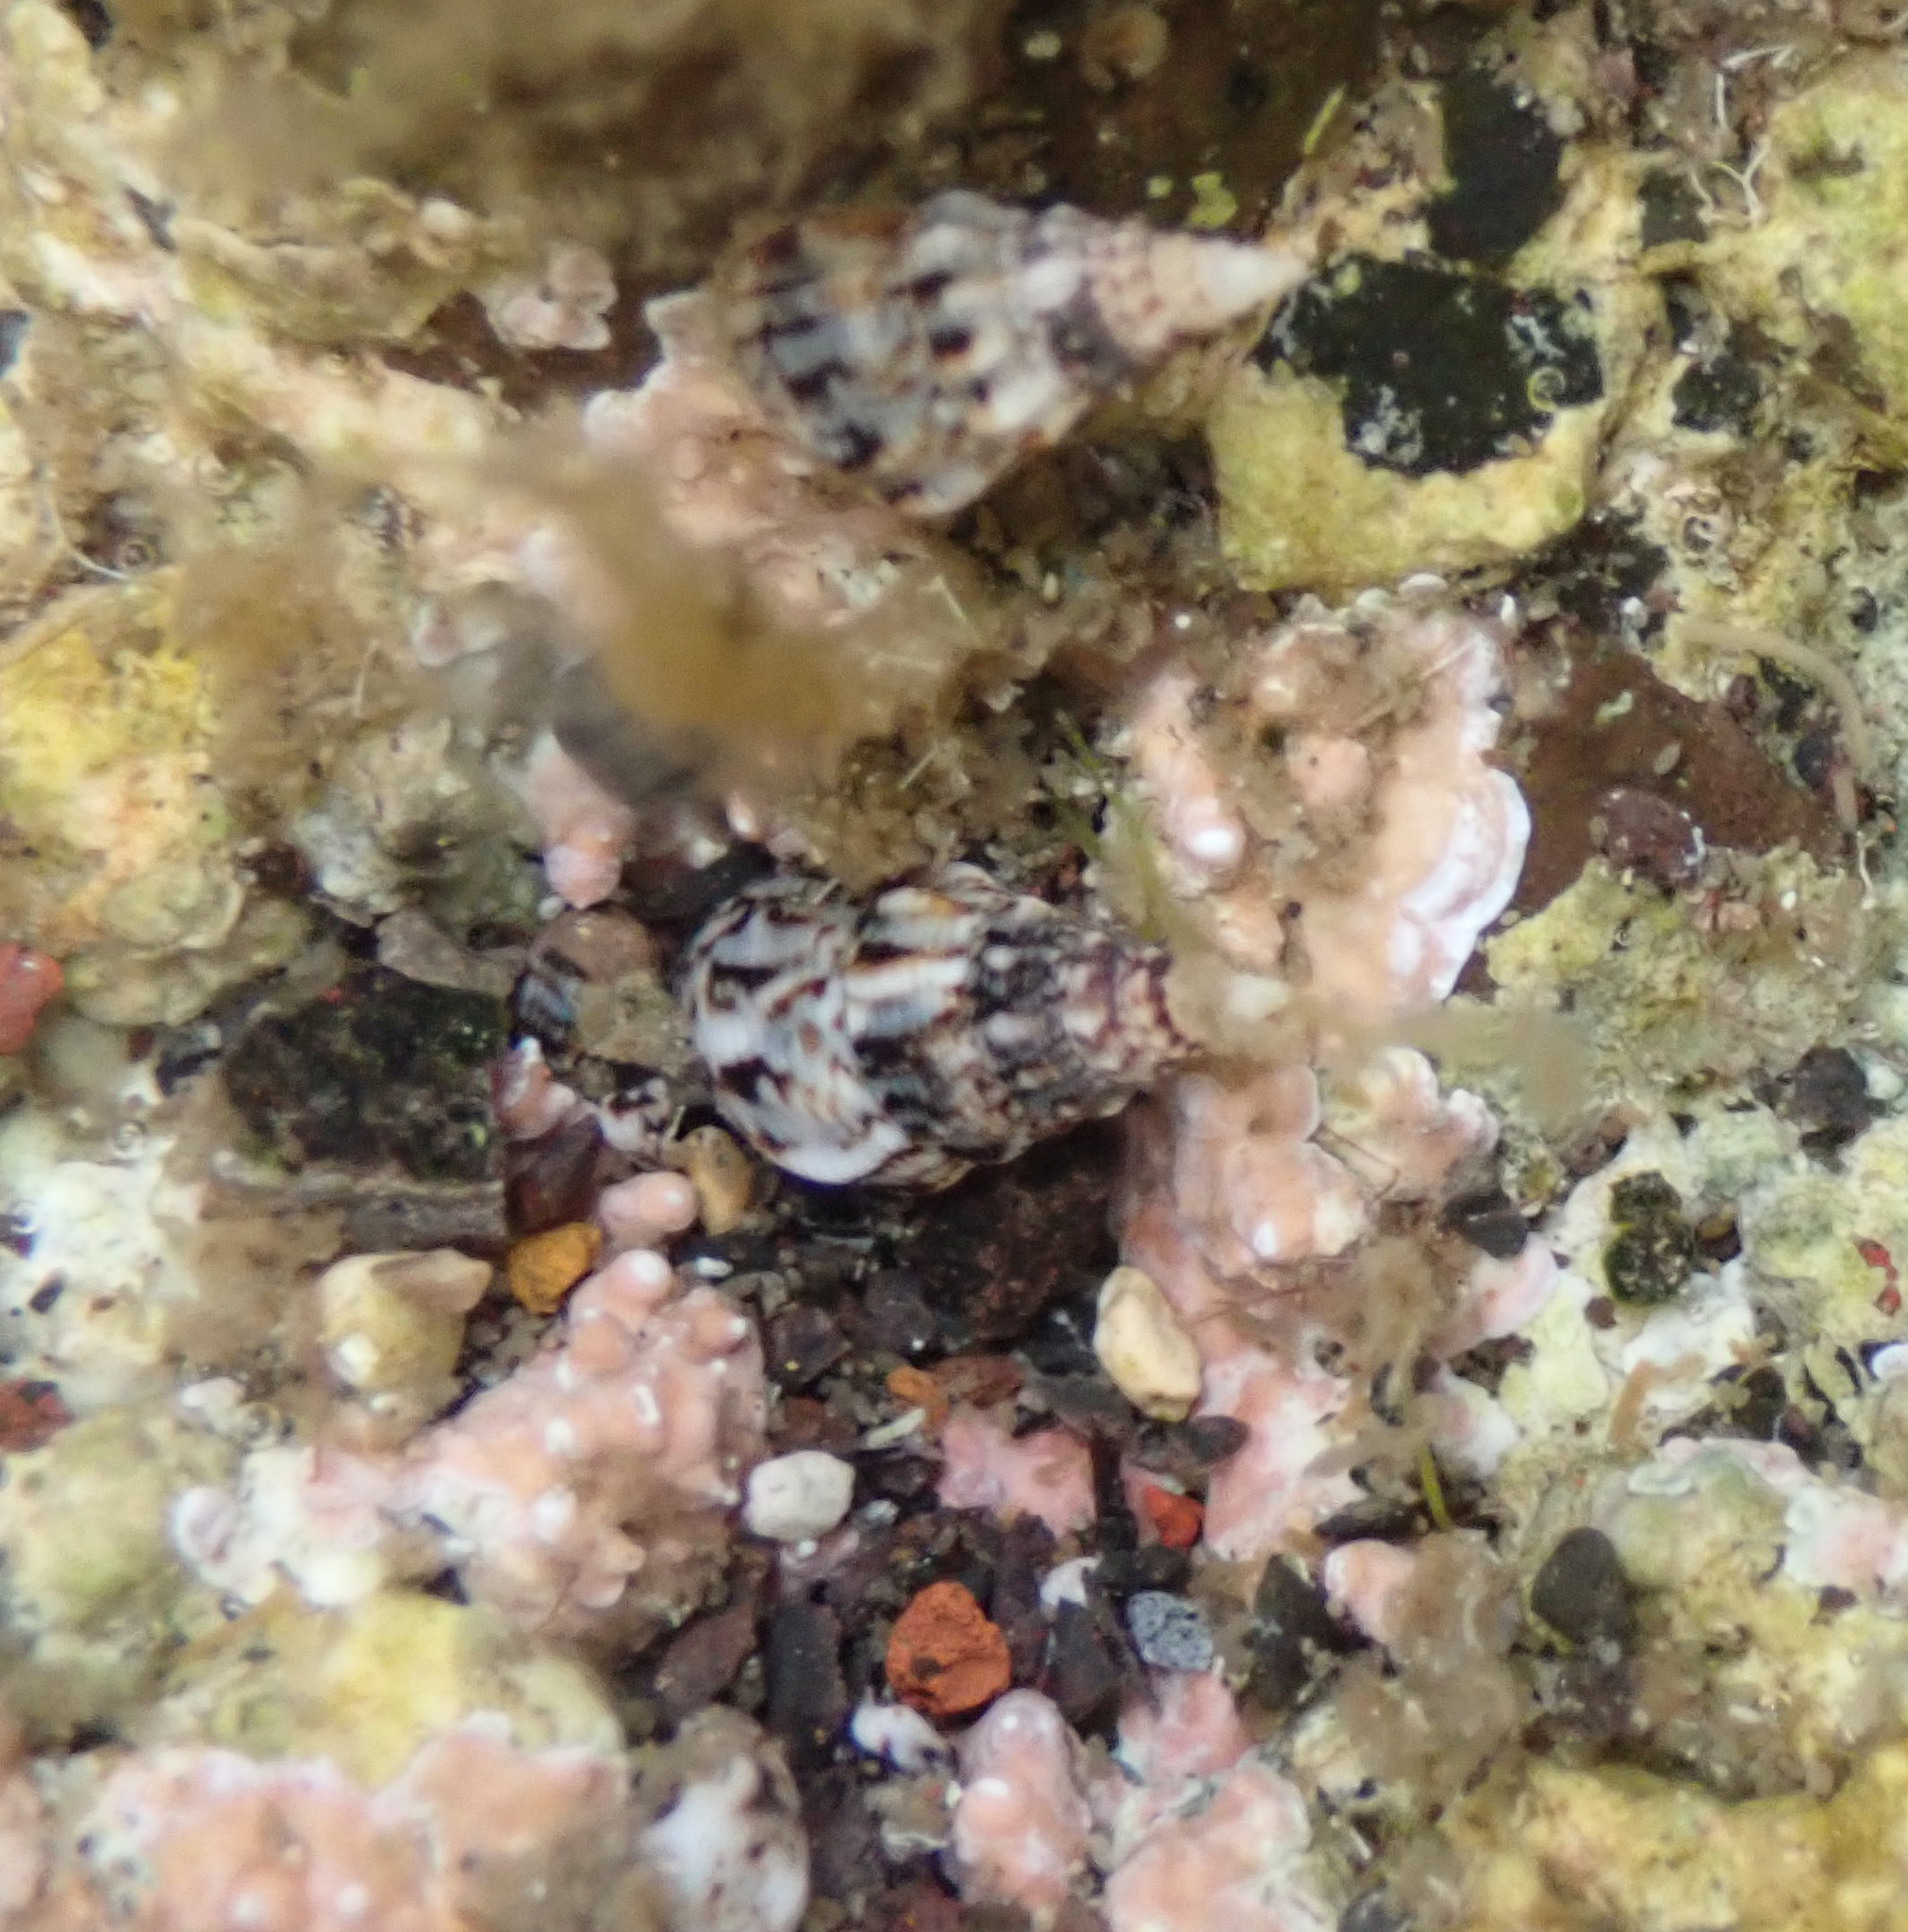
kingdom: Animalia
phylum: Mollusca
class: Gastropoda
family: Cerithiidae
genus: Cerithium
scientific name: Cerithium vulgatum
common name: European cerith
